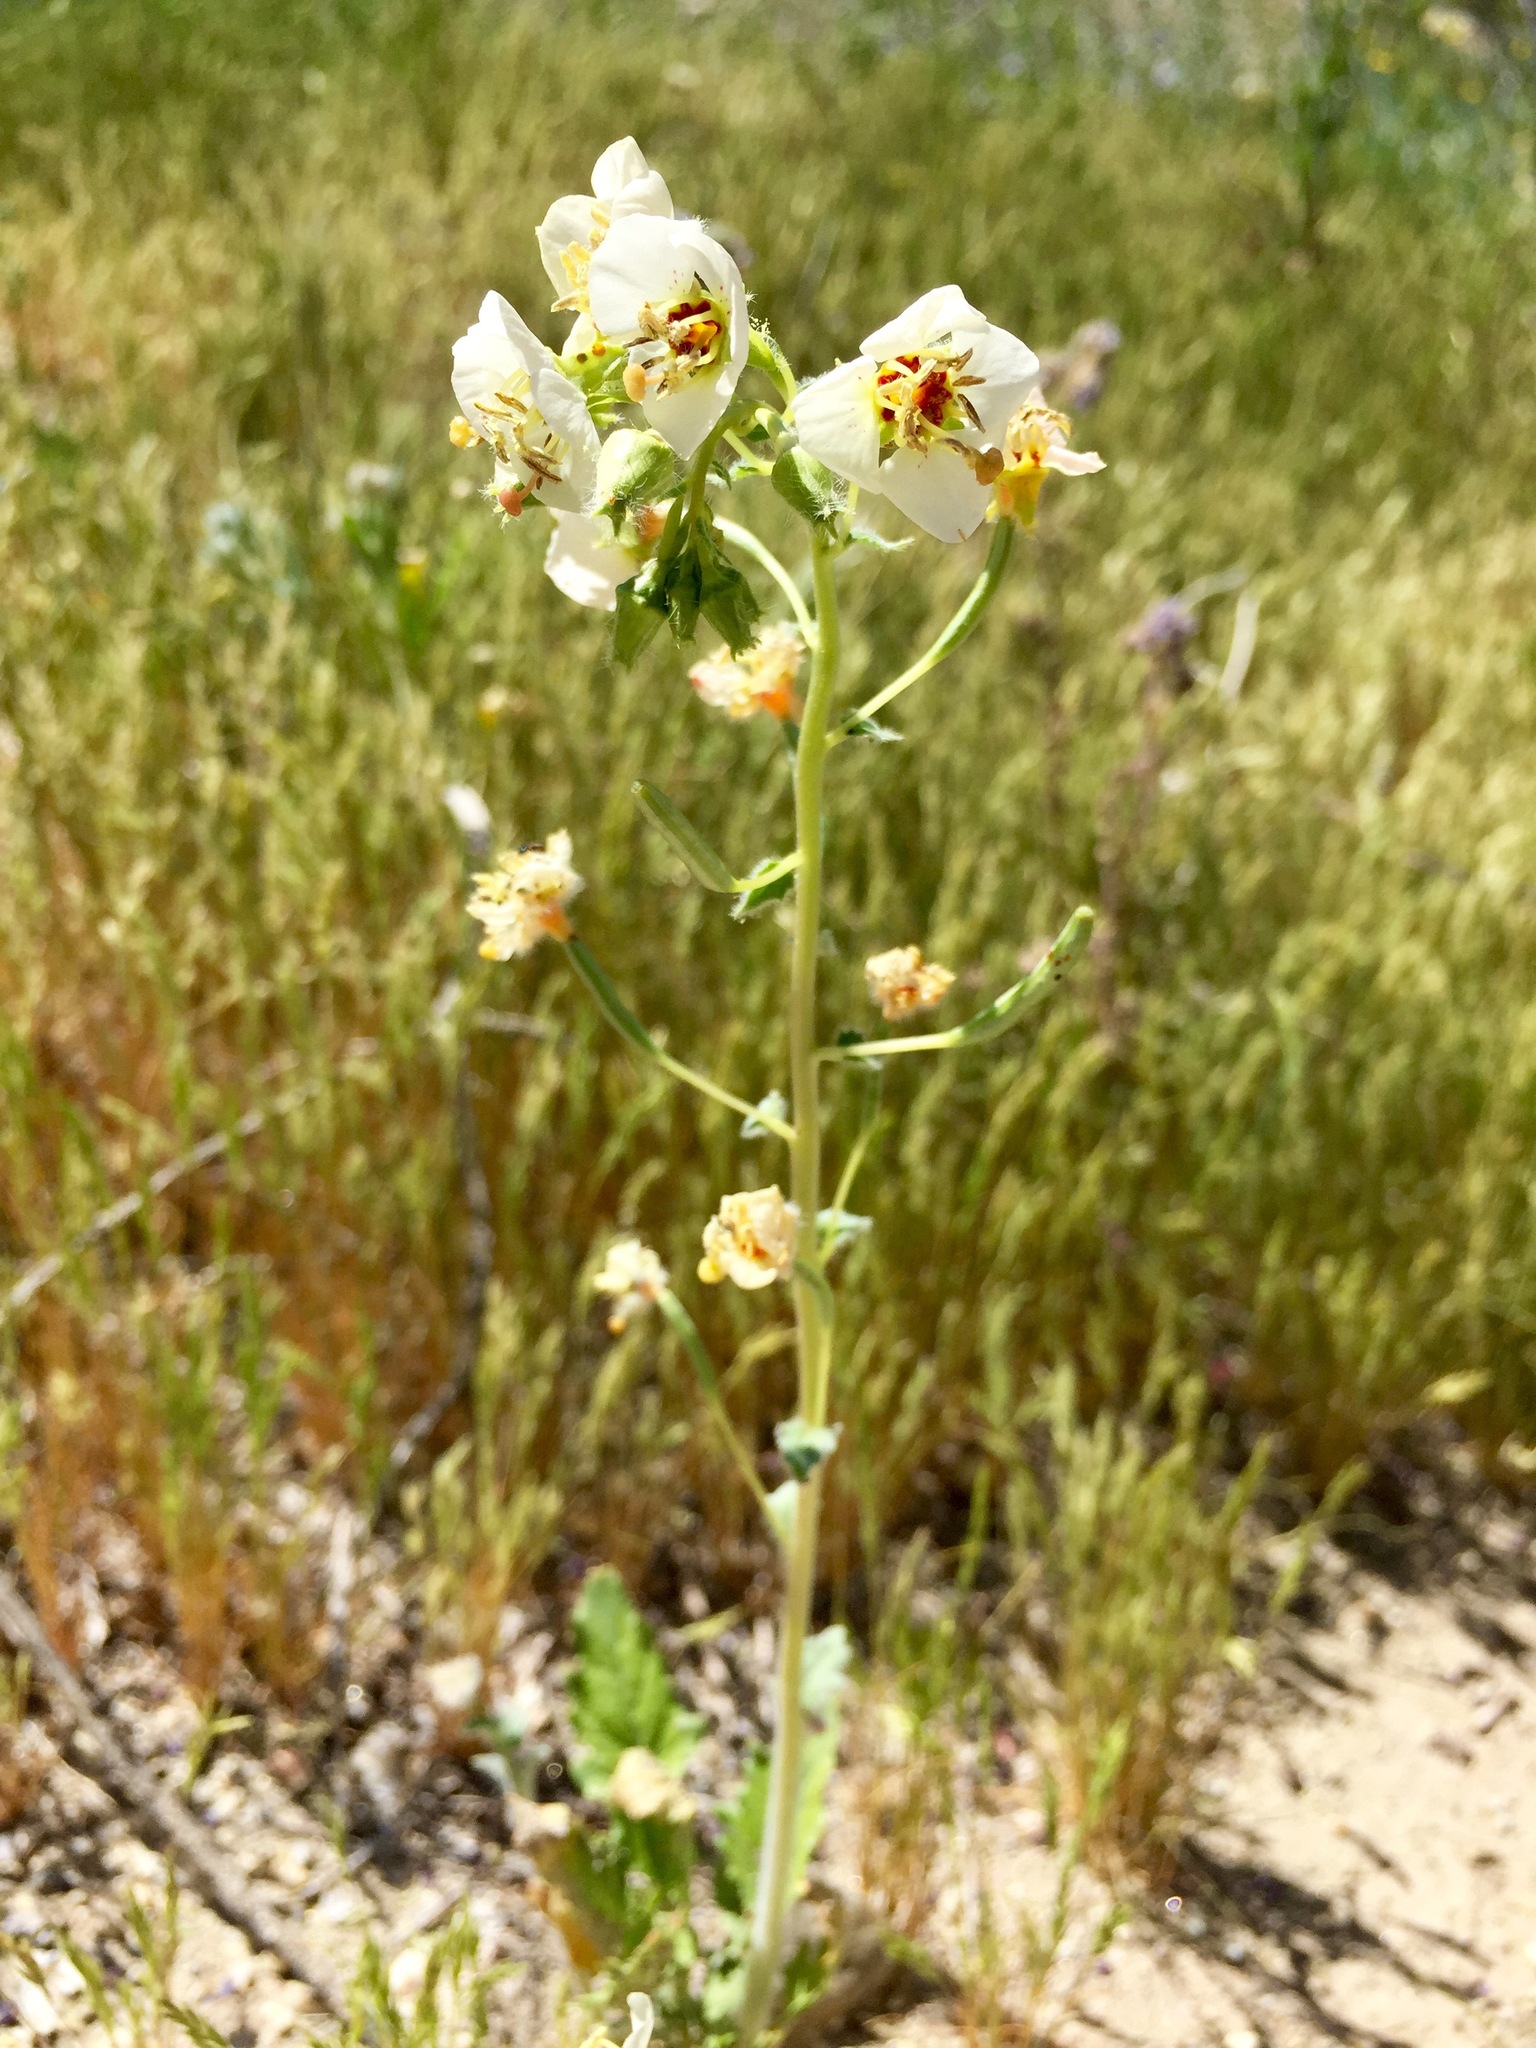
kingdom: Plantae
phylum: Tracheophyta
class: Magnoliopsida
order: Myrtales
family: Onagraceae
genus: Chylismia
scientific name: Chylismia claviformis
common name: Browneyes
